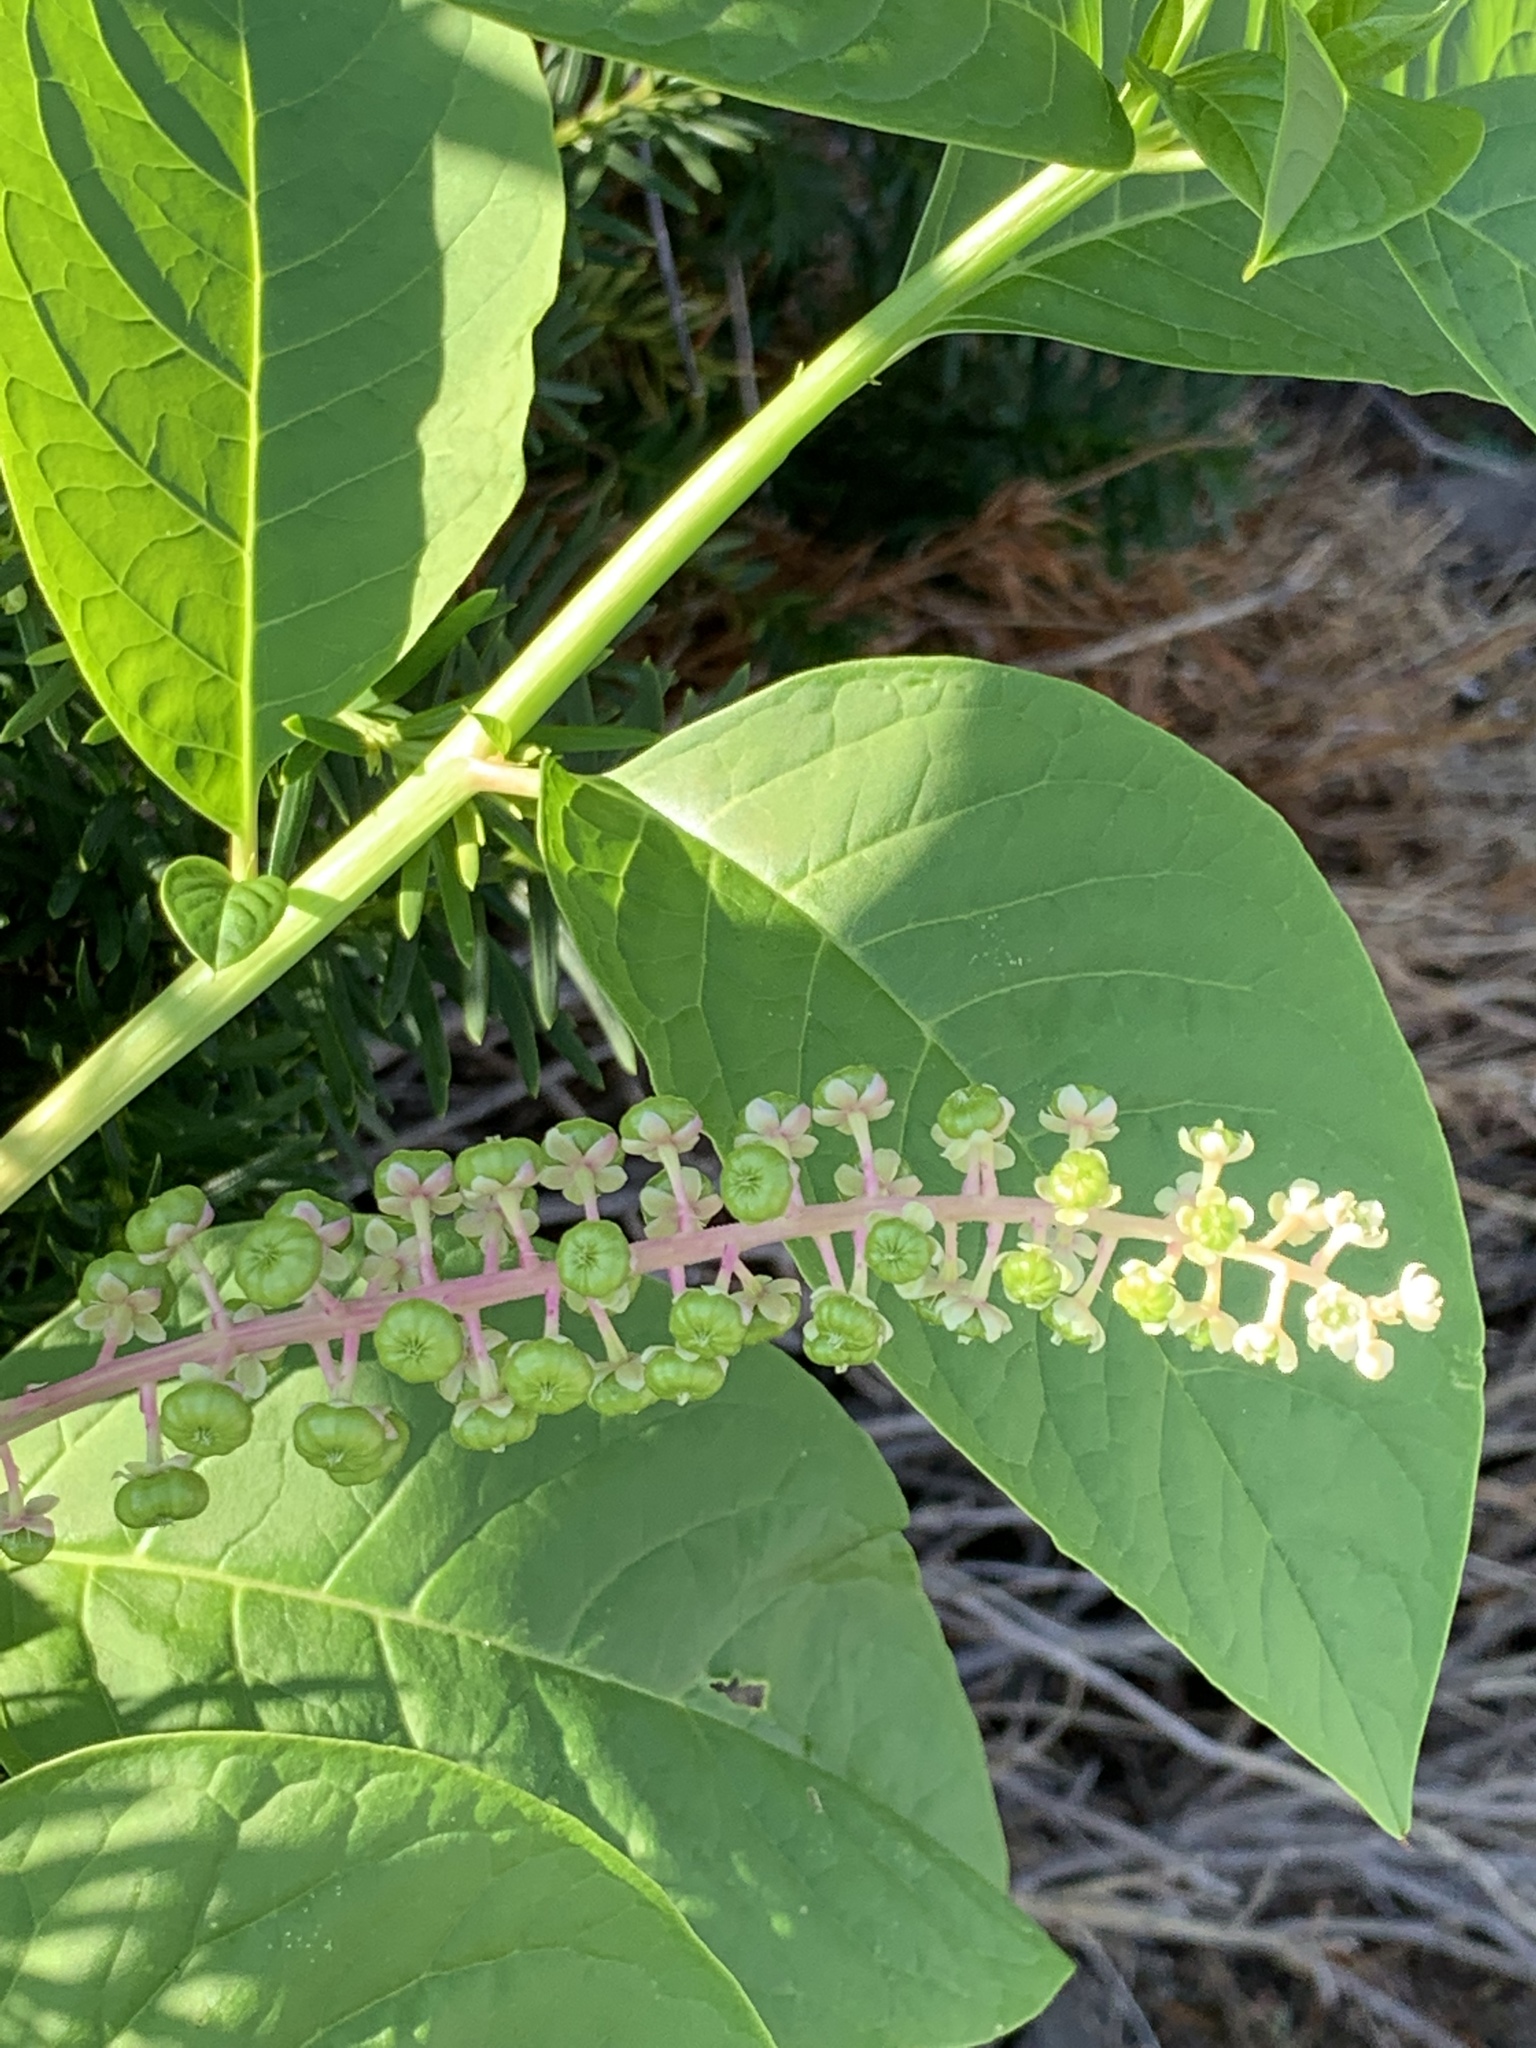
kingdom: Plantae
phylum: Tracheophyta
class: Magnoliopsida
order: Caryophyllales
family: Phytolaccaceae
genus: Phytolacca
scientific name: Phytolacca americana
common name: American pokeweed
